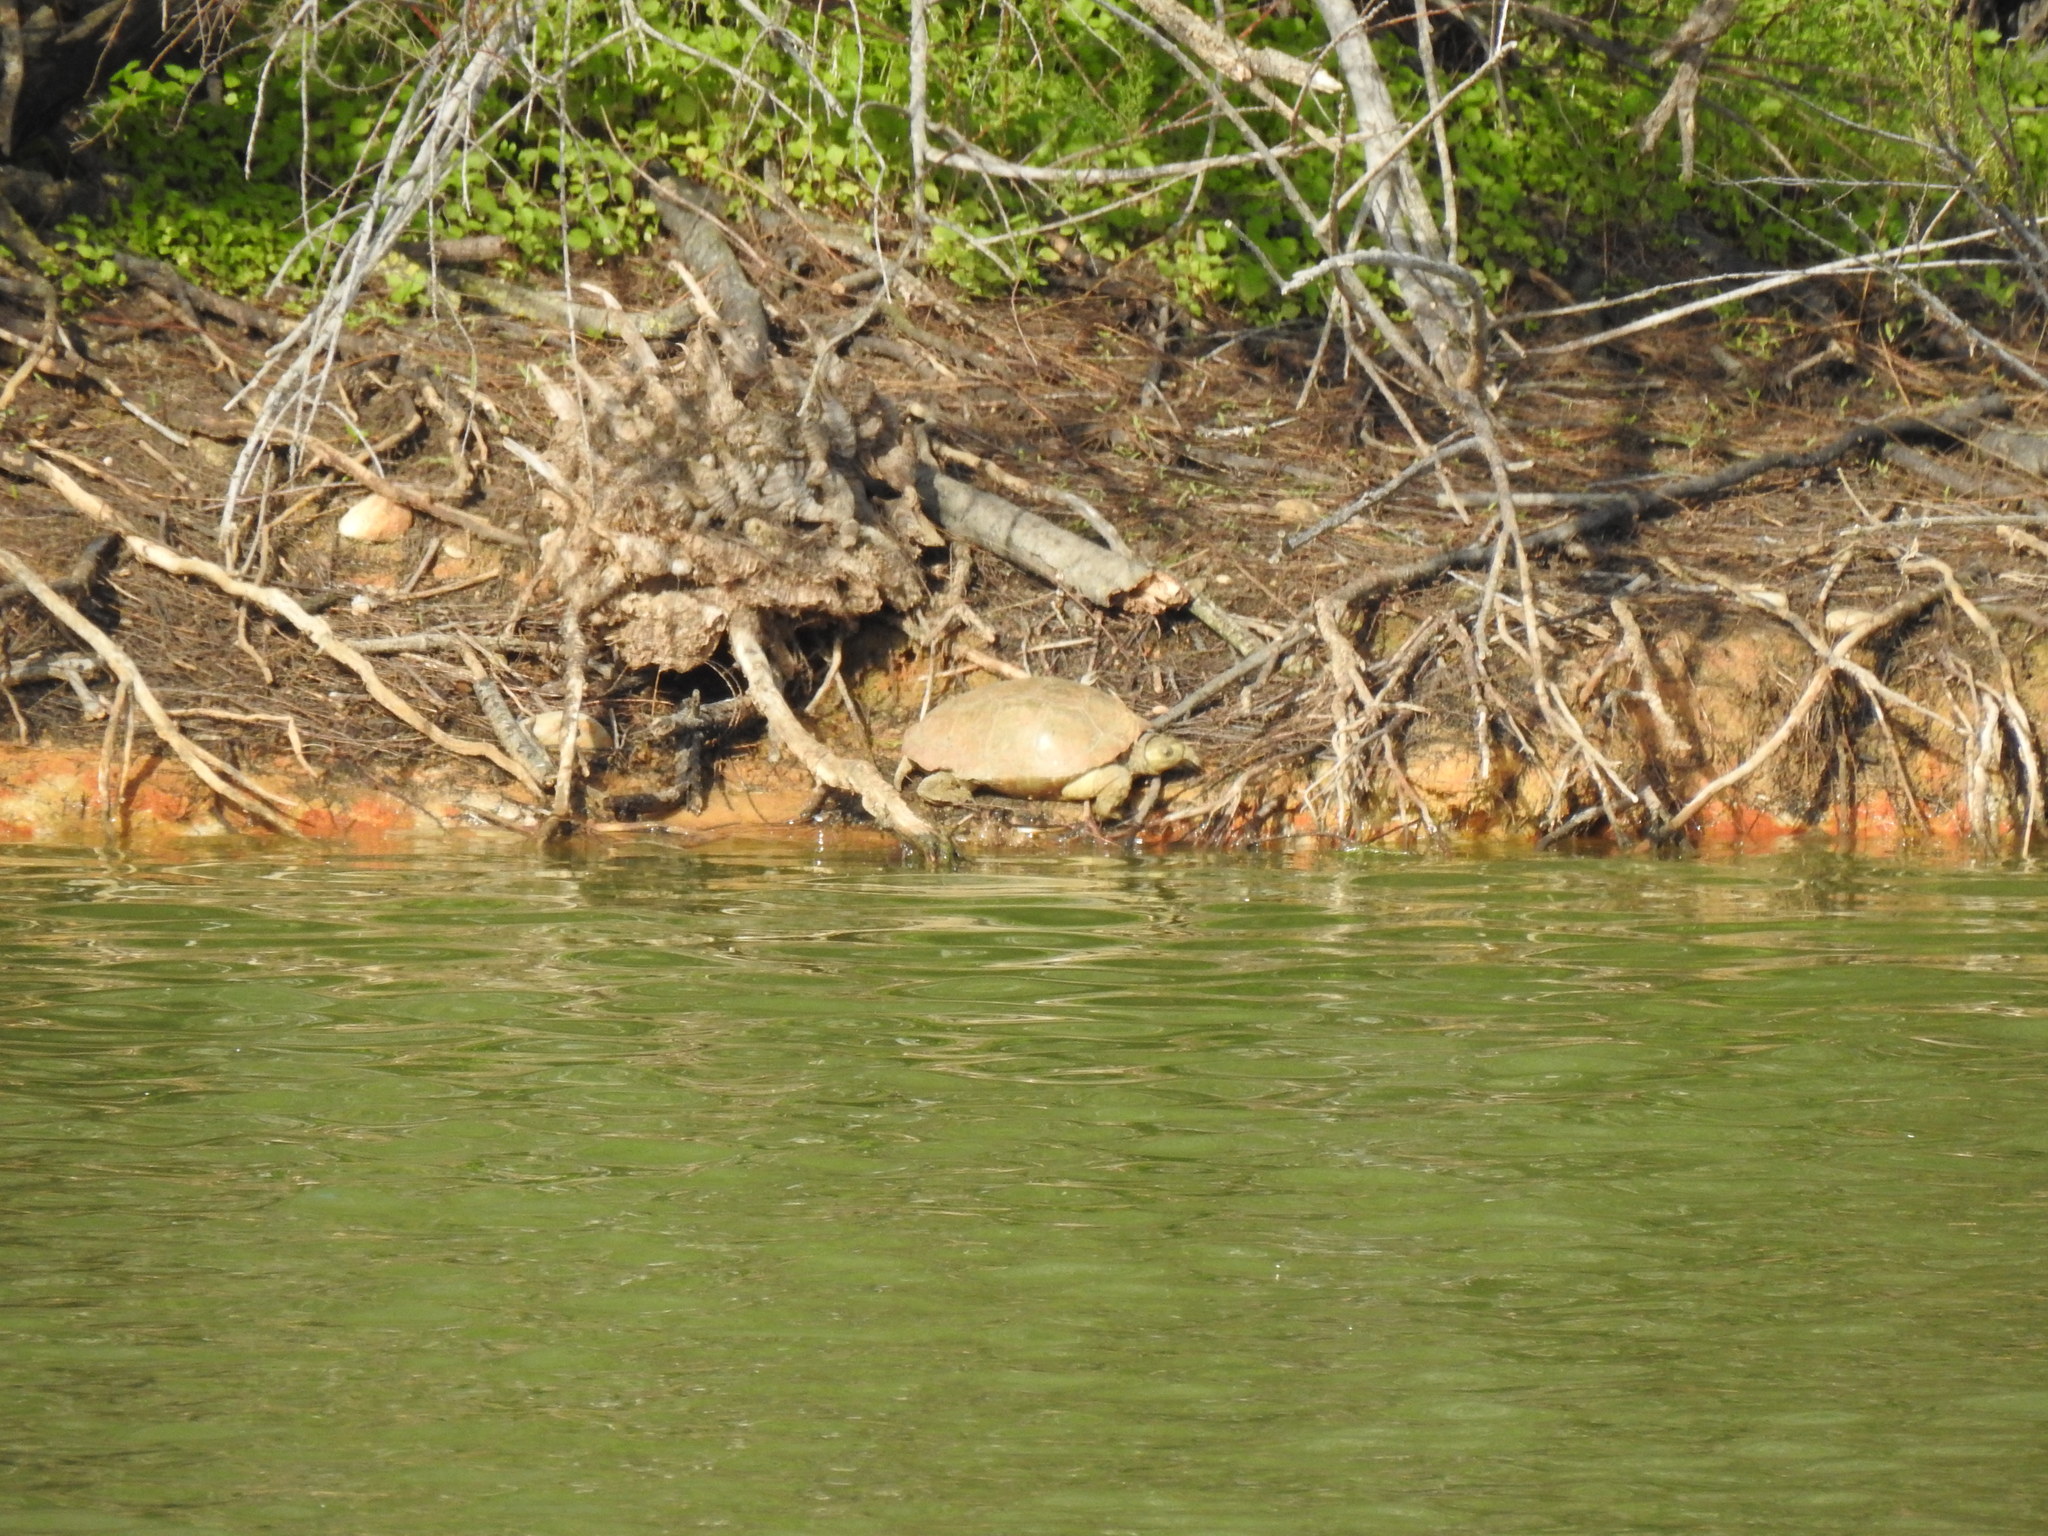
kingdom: Animalia
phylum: Chordata
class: Testudines
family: Geoemydidae
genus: Mauremys
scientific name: Mauremys leprosa
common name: Mediterranean pond turtle
